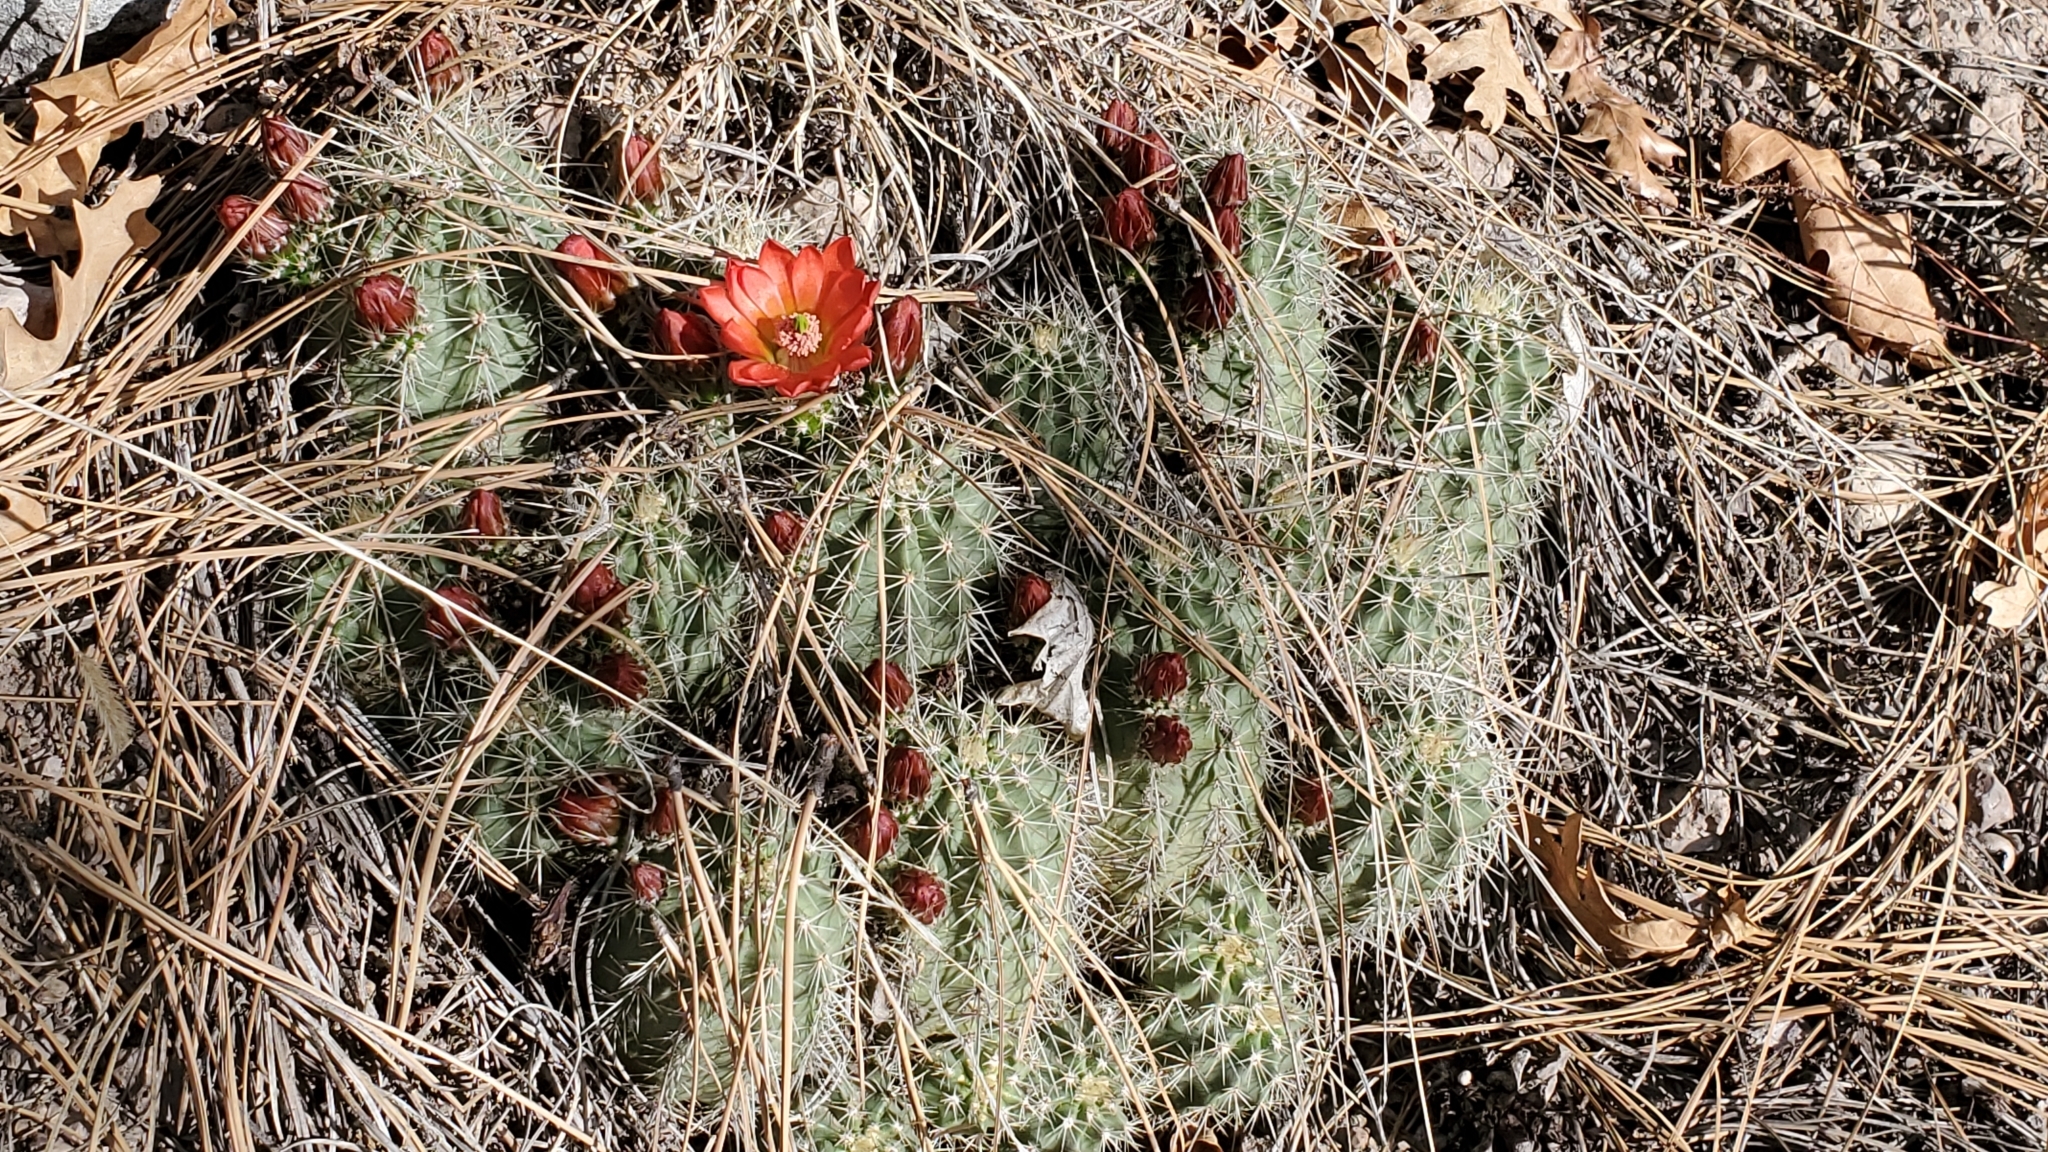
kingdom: Plantae
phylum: Tracheophyta
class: Magnoliopsida
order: Caryophyllales
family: Cactaceae
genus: Echinocereus
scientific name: Echinocereus coccineus
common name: Scarlet hedgehog cactus
